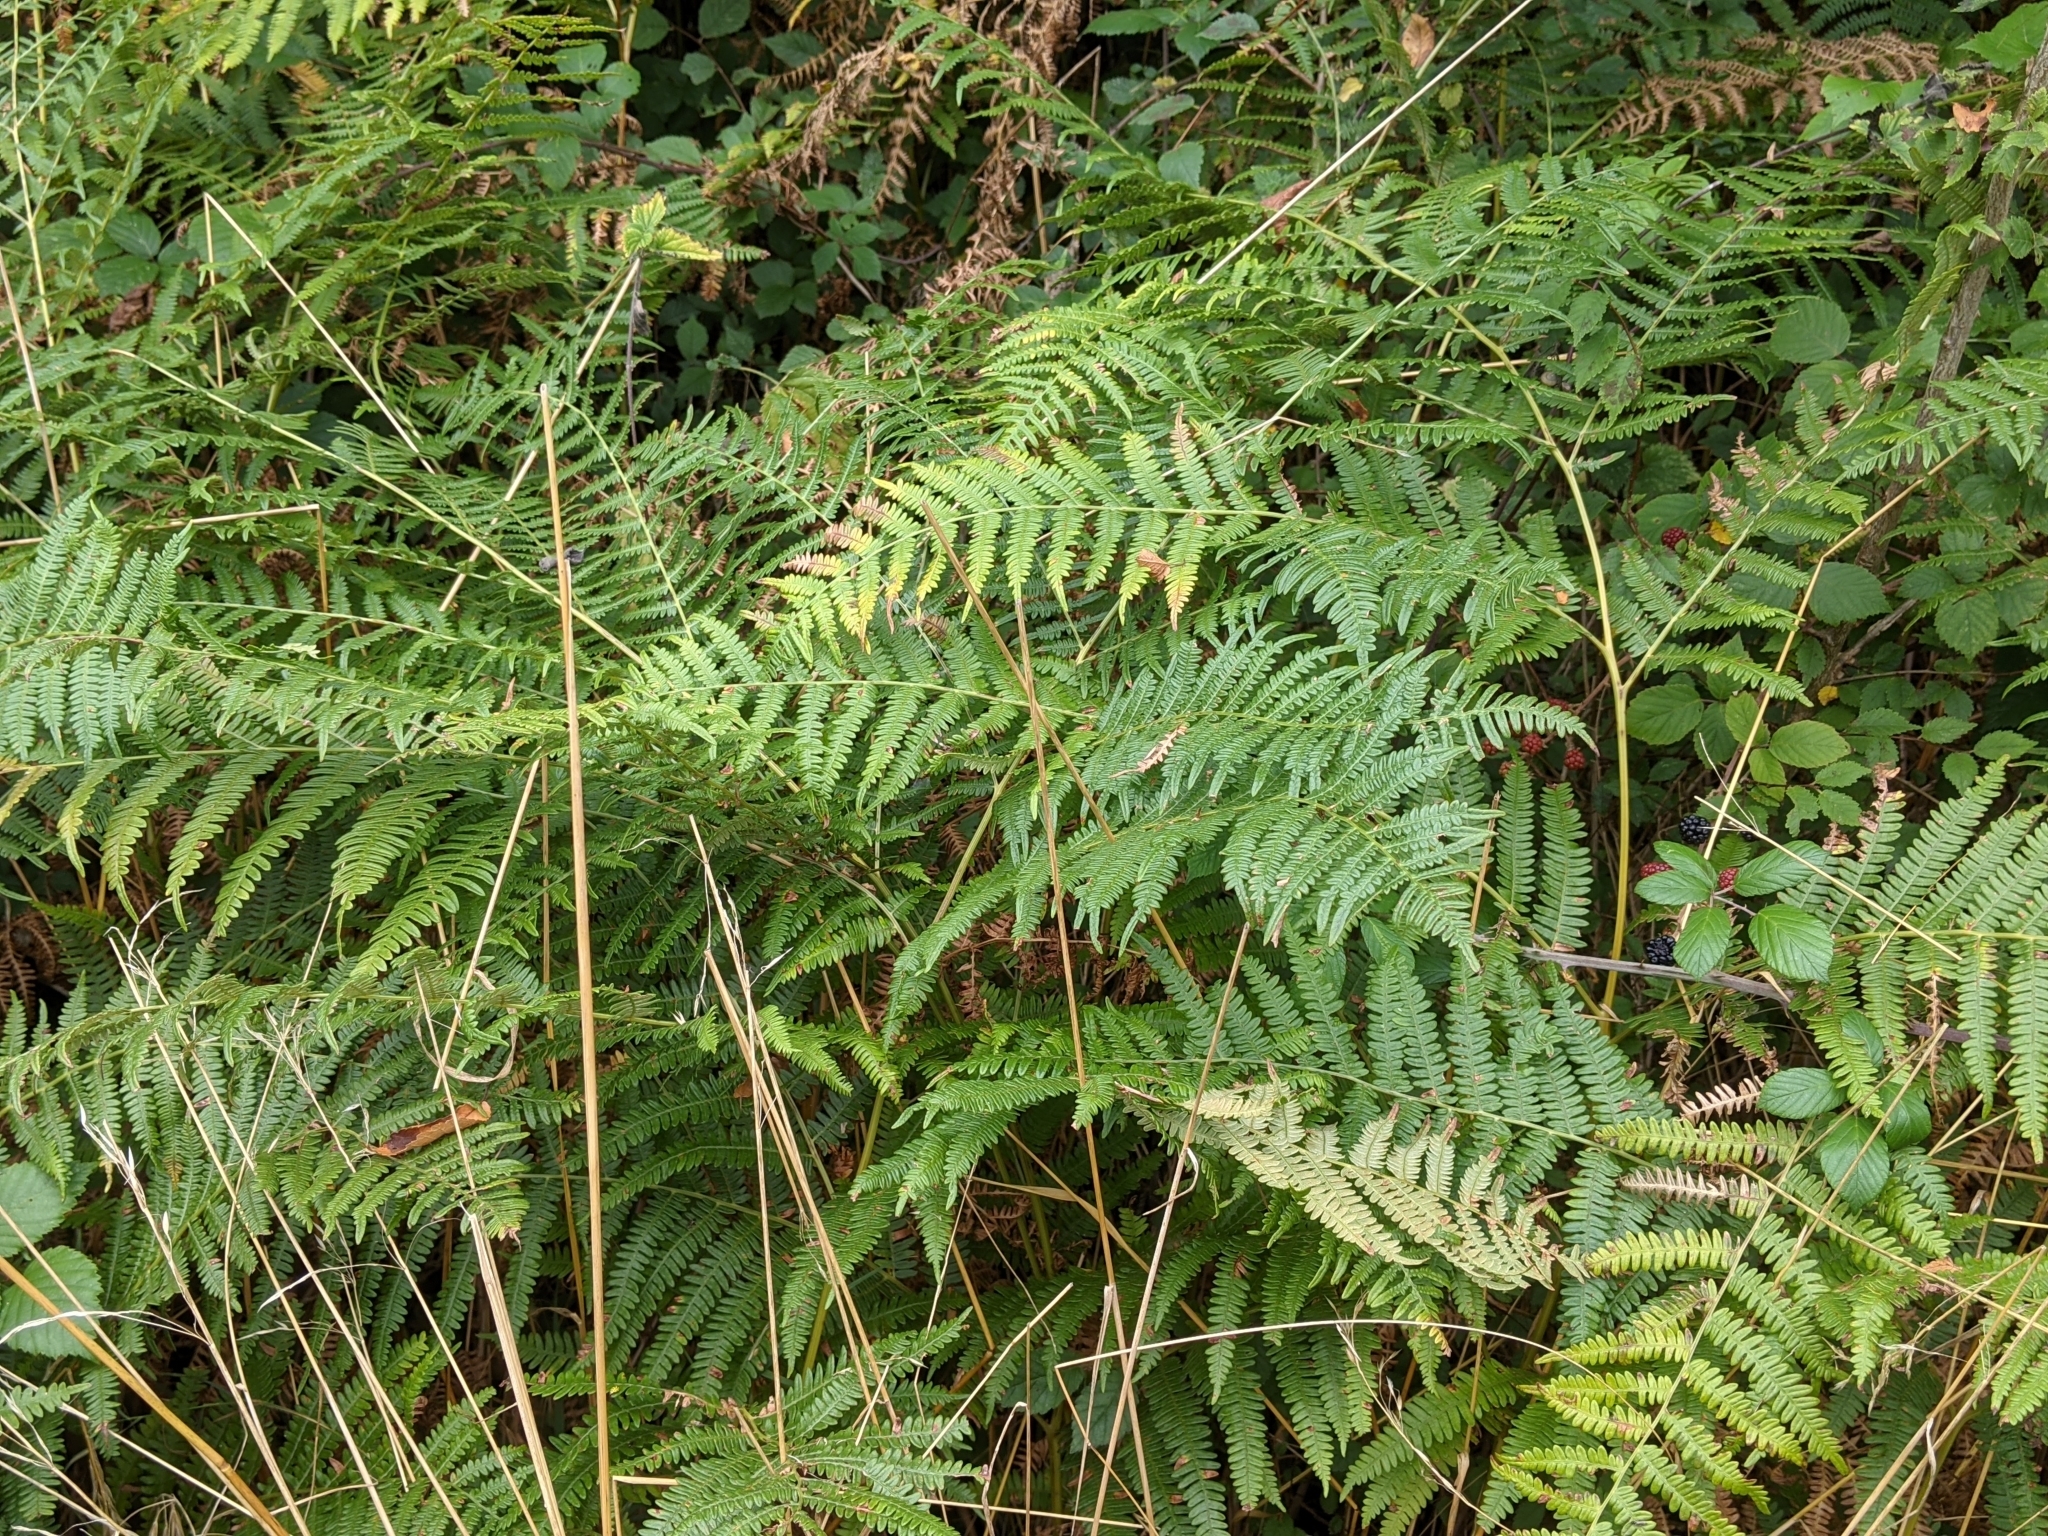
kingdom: Plantae
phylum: Tracheophyta
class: Polypodiopsida
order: Polypodiales
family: Dennstaedtiaceae
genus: Pteridium
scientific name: Pteridium aquilinum
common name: Bracken
